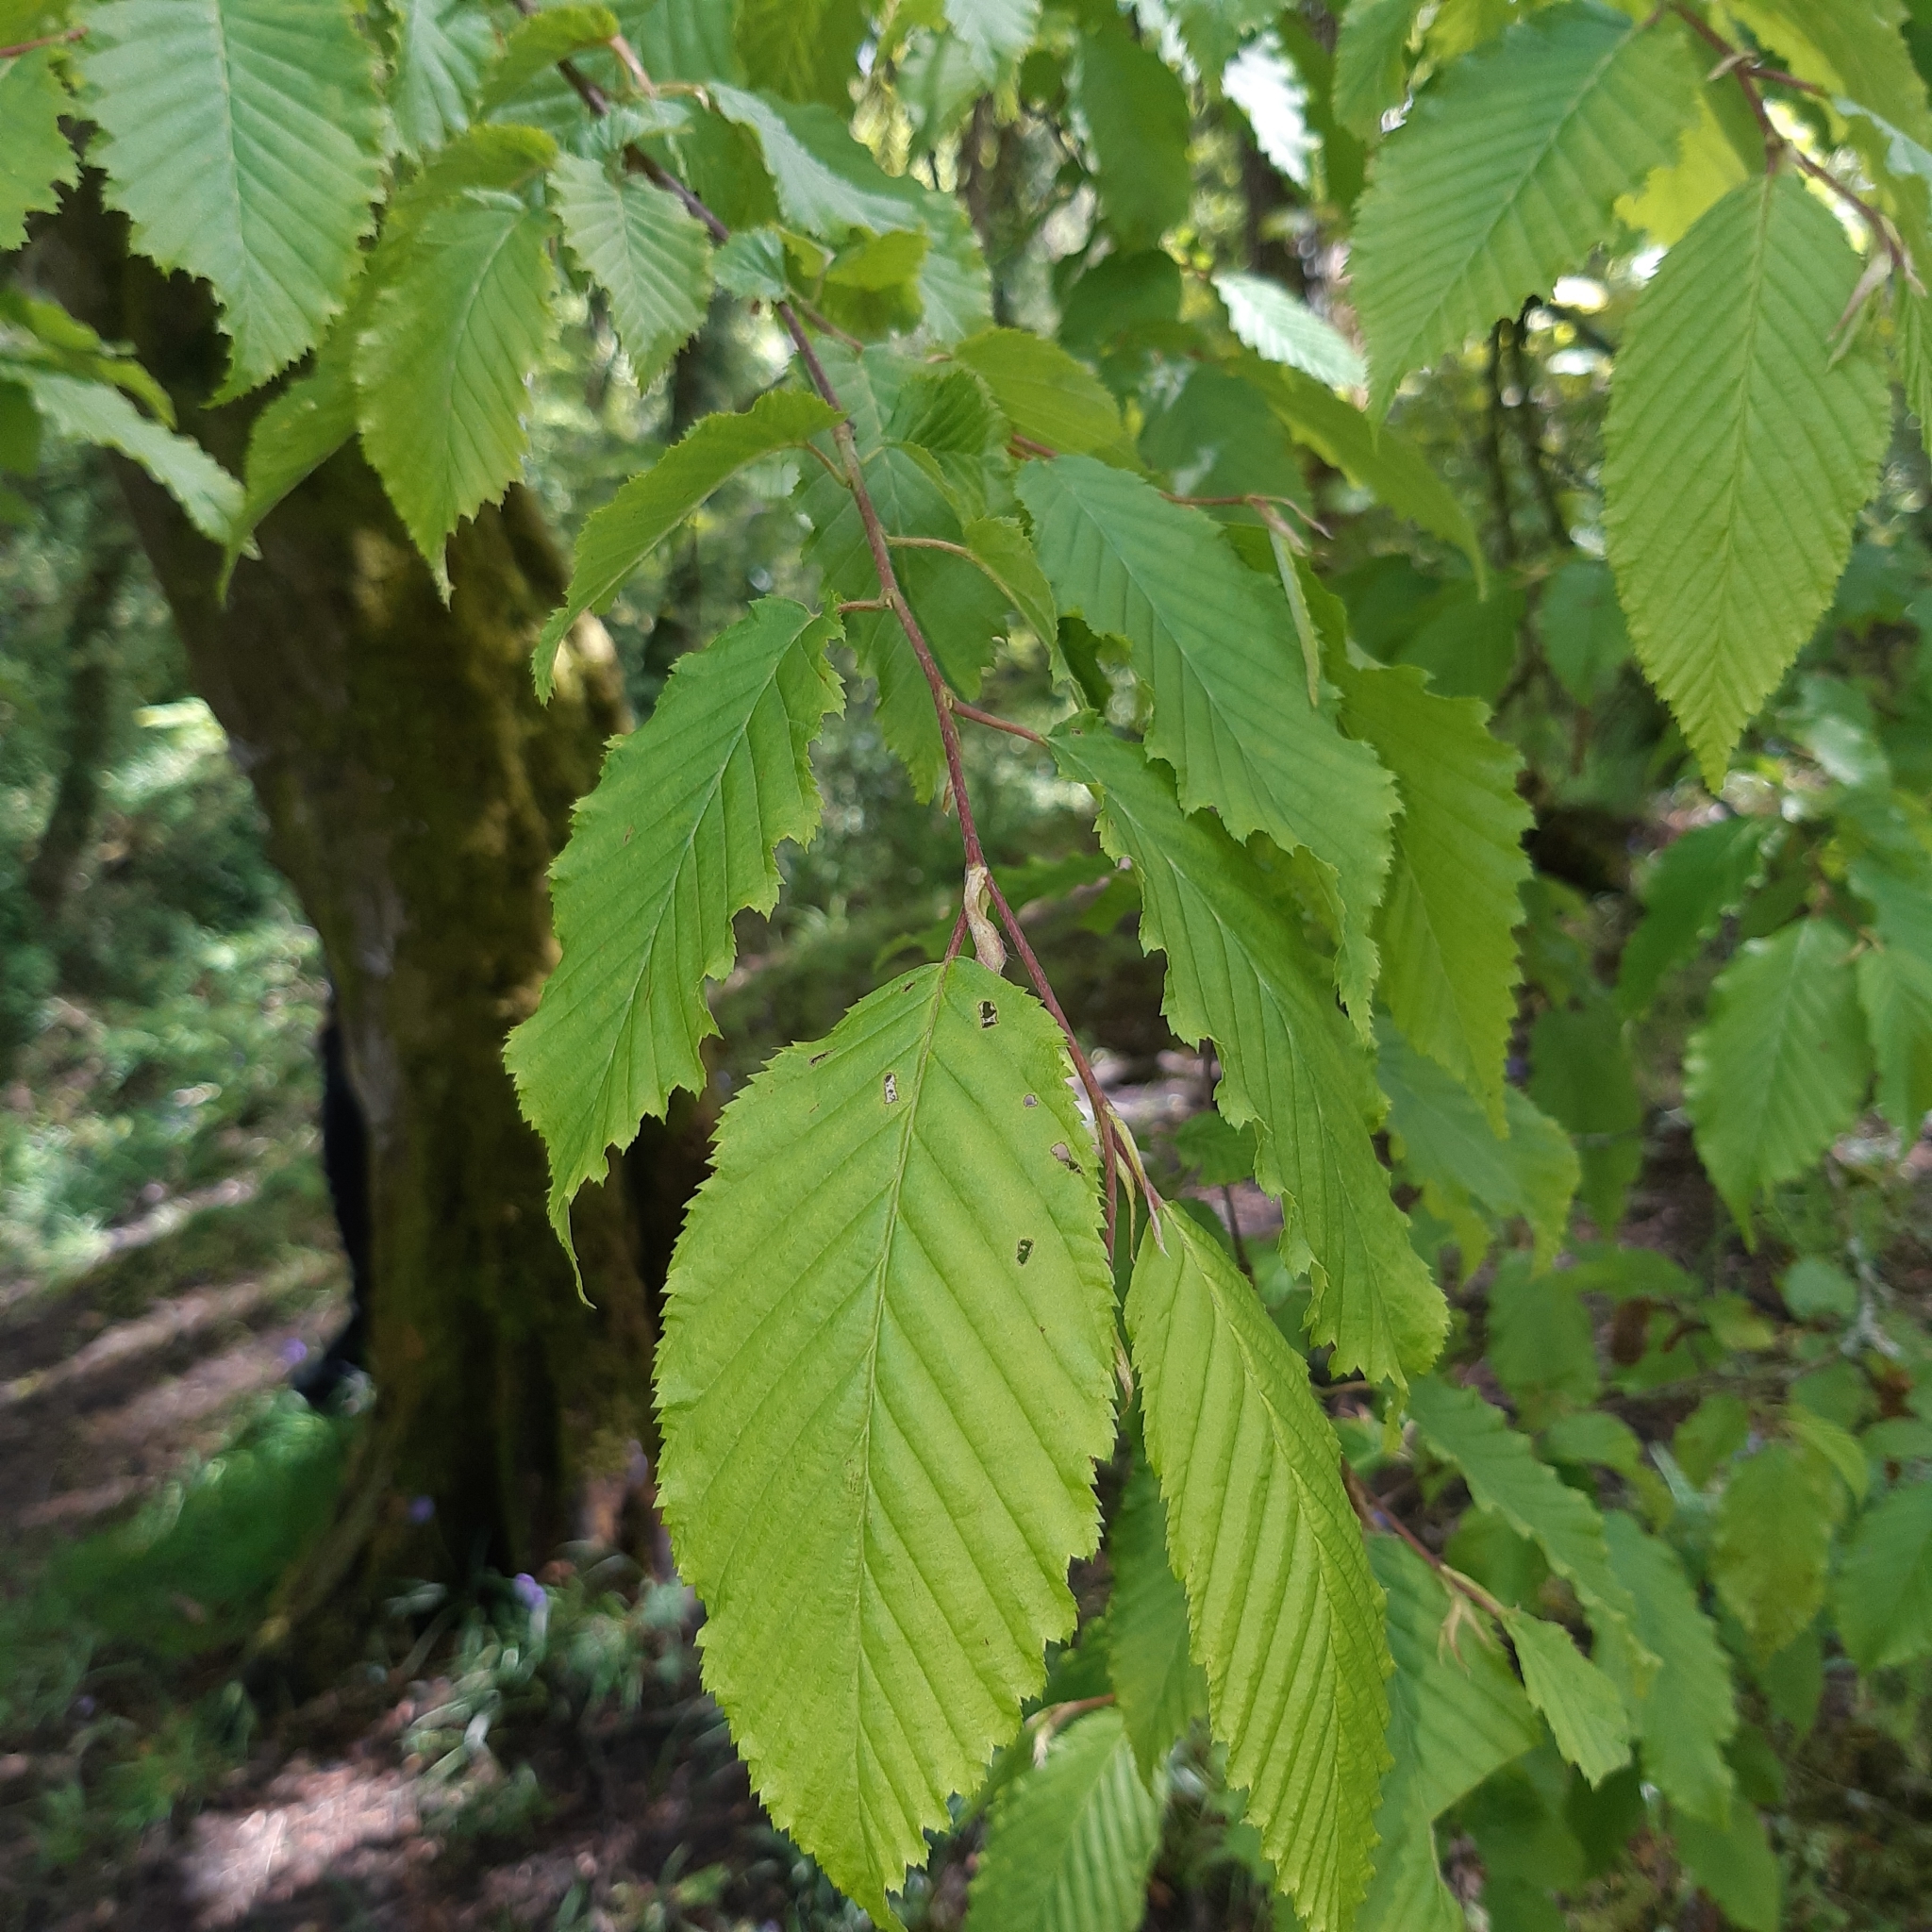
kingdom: Plantae
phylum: Tracheophyta
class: Magnoliopsida
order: Fagales
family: Betulaceae
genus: Carpinus
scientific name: Carpinus betulus
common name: Hornbeam
